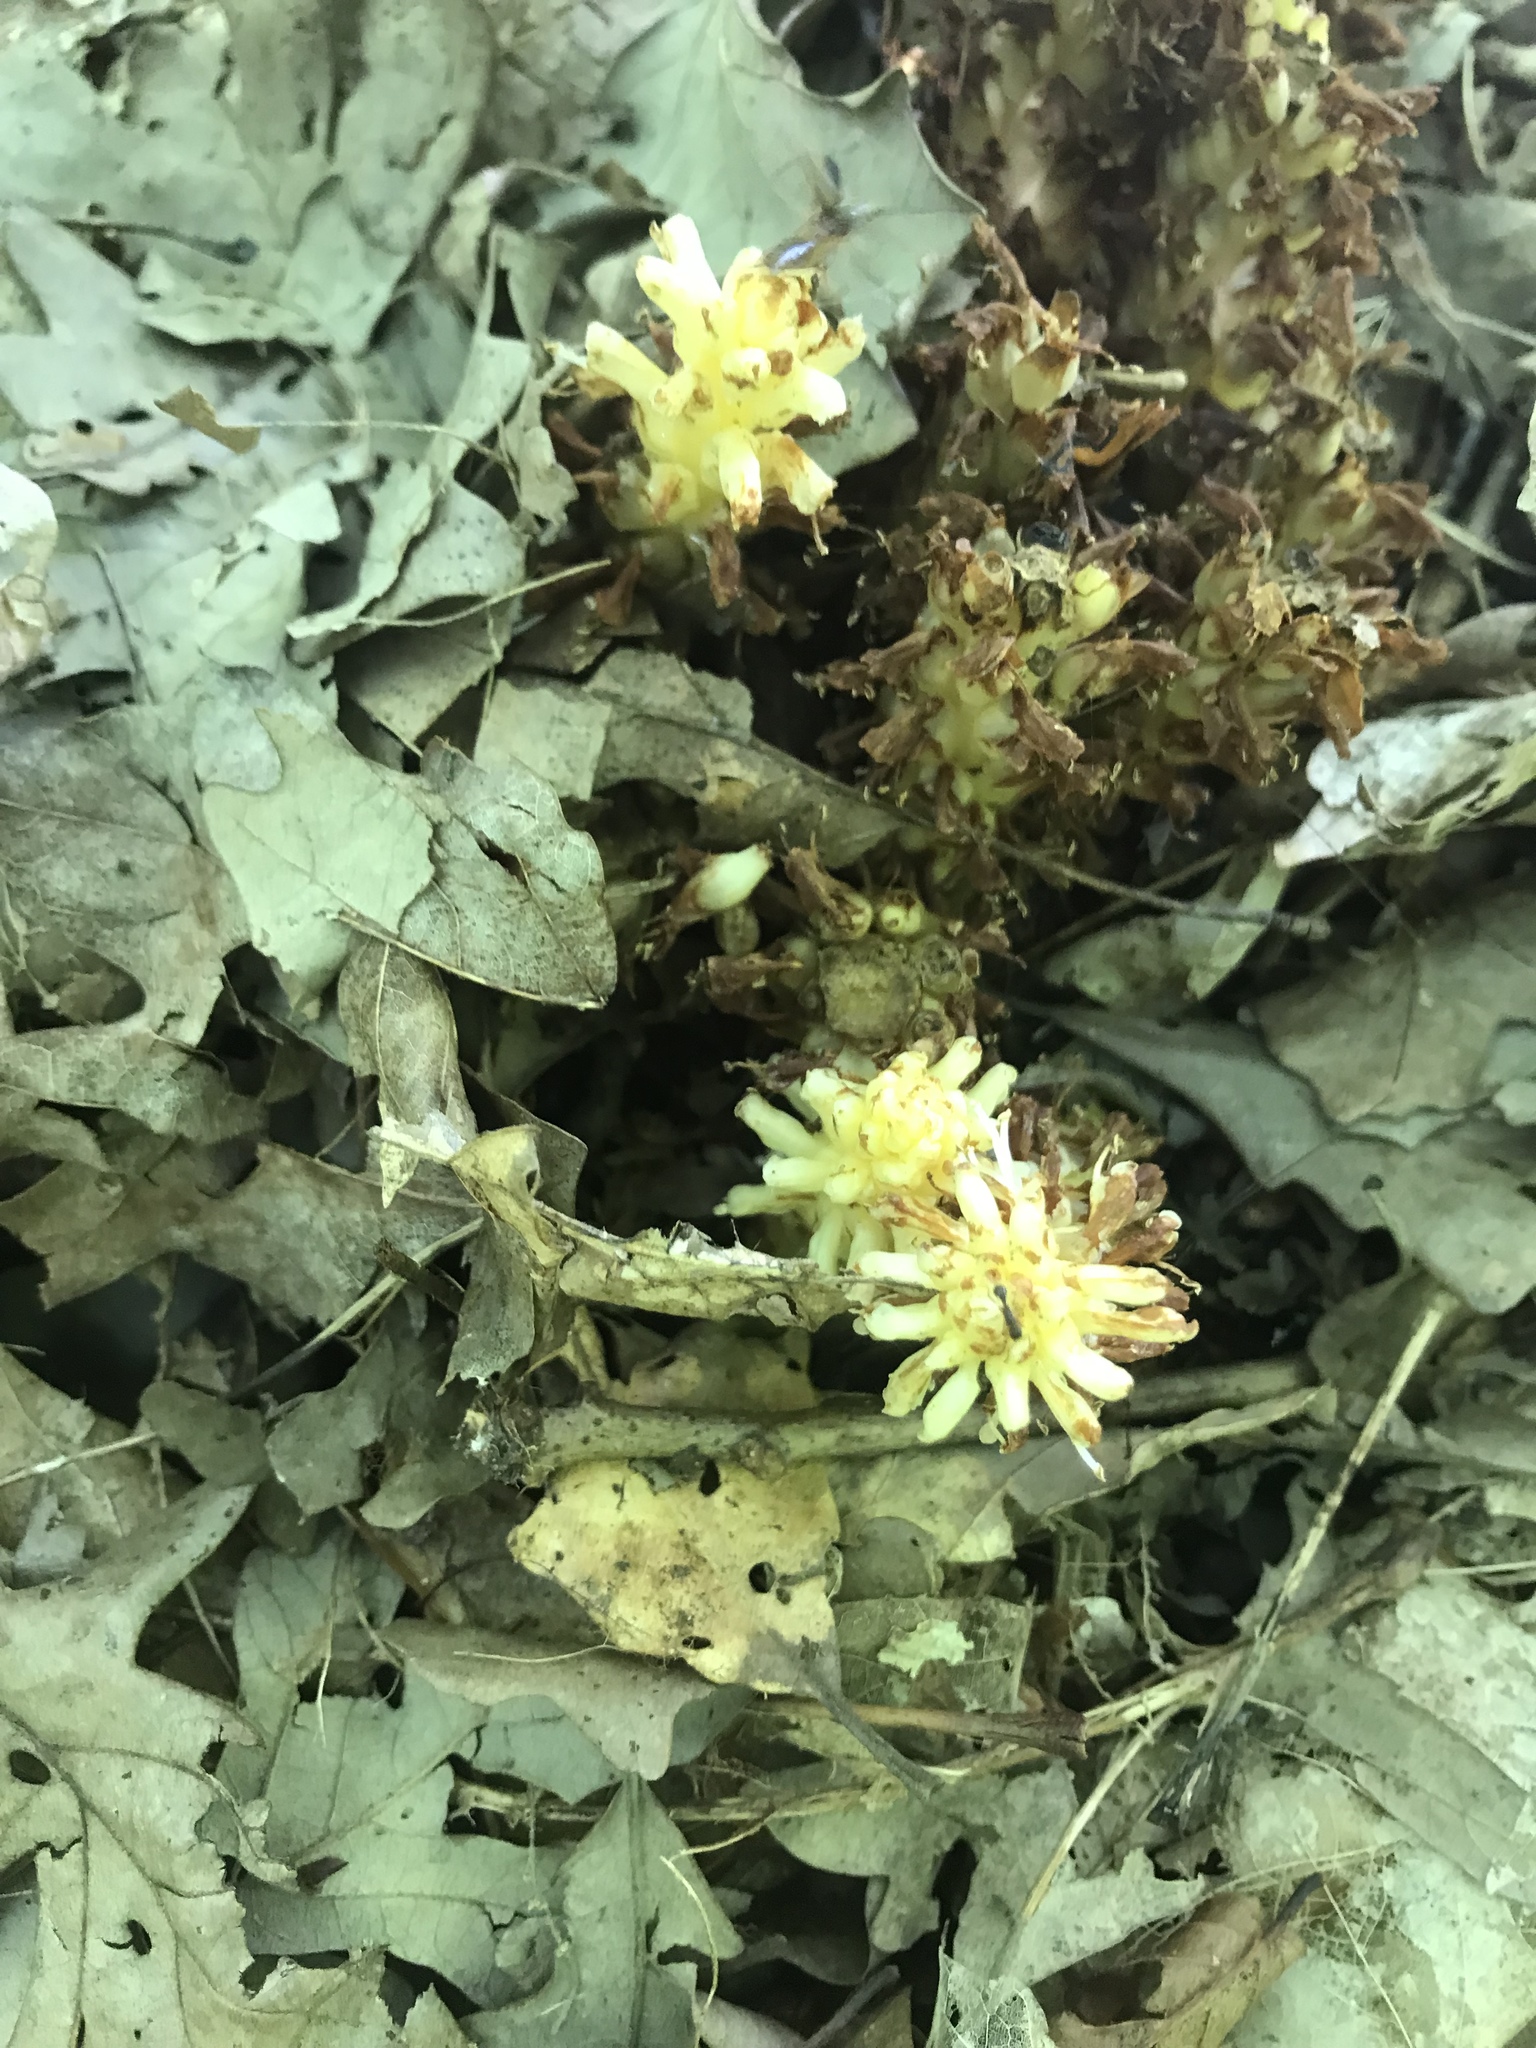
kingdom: Plantae
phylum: Tracheophyta
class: Magnoliopsida
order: Lamiales
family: Orobanchaceae
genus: Conopholis
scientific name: Conopholis americana
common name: American cancer-root
